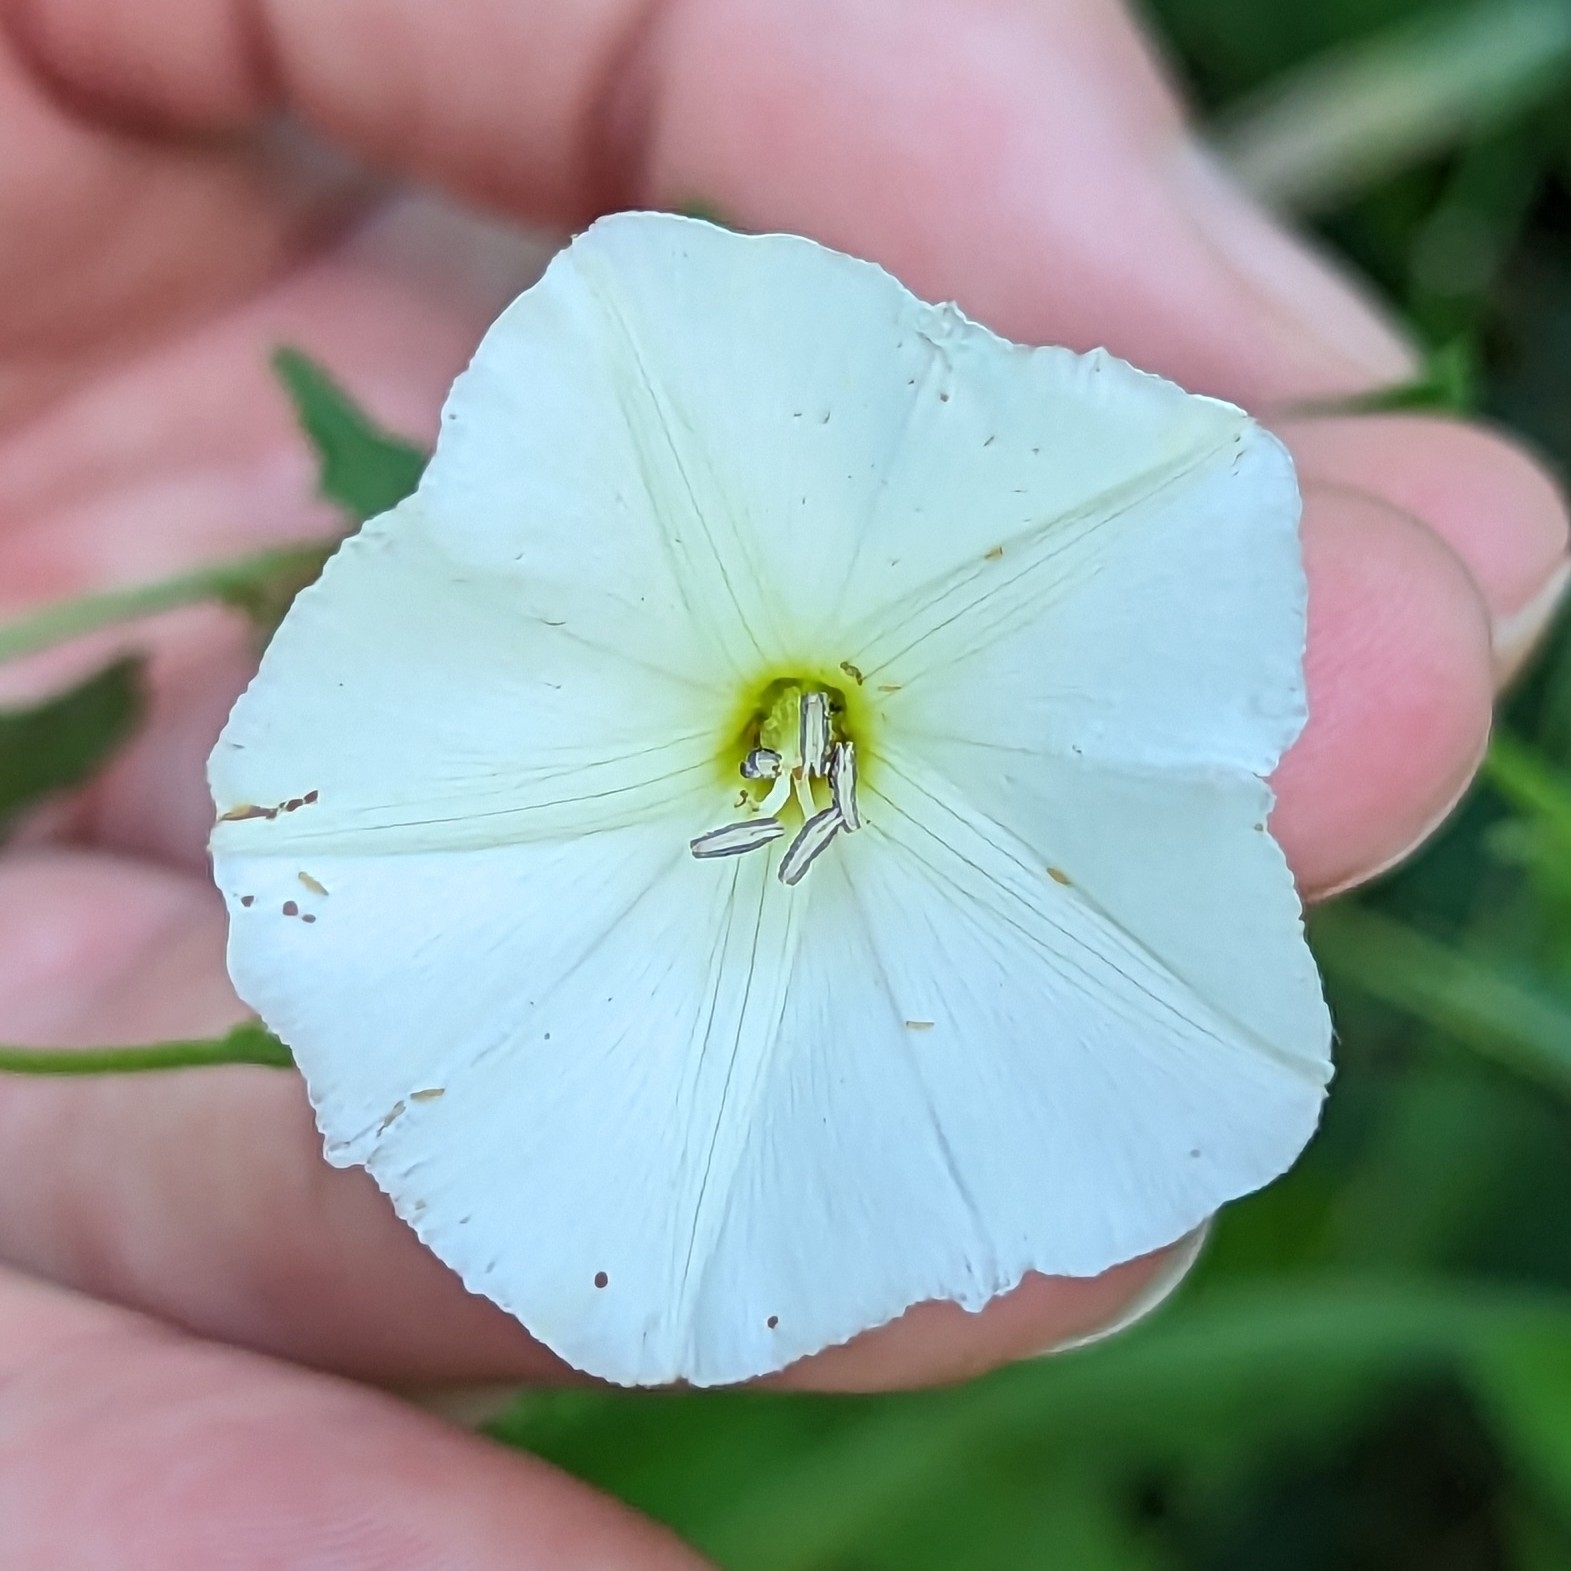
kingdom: Plantae
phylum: Tracheophyta
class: Magnoliopsida
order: Solanales
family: Convolvulaceae
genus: Convolvulus
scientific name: Convolvulus arvensis
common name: Field bindweed
